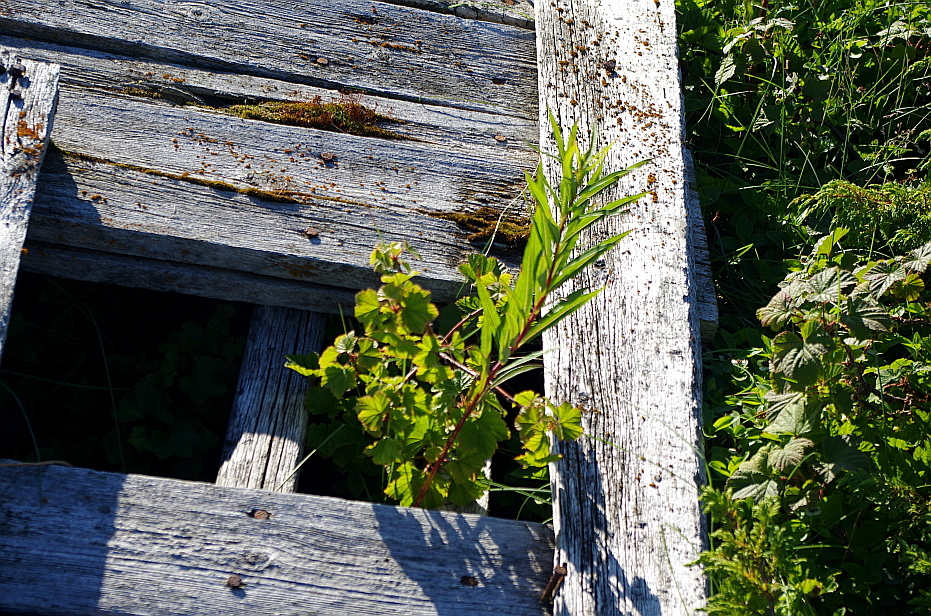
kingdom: Plantae
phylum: Tracheophyta
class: Magnoliopsida
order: Myrtales
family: Onagraceae
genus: Chamaenerion
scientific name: Chamaenerion angustifolium
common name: Fireweed
